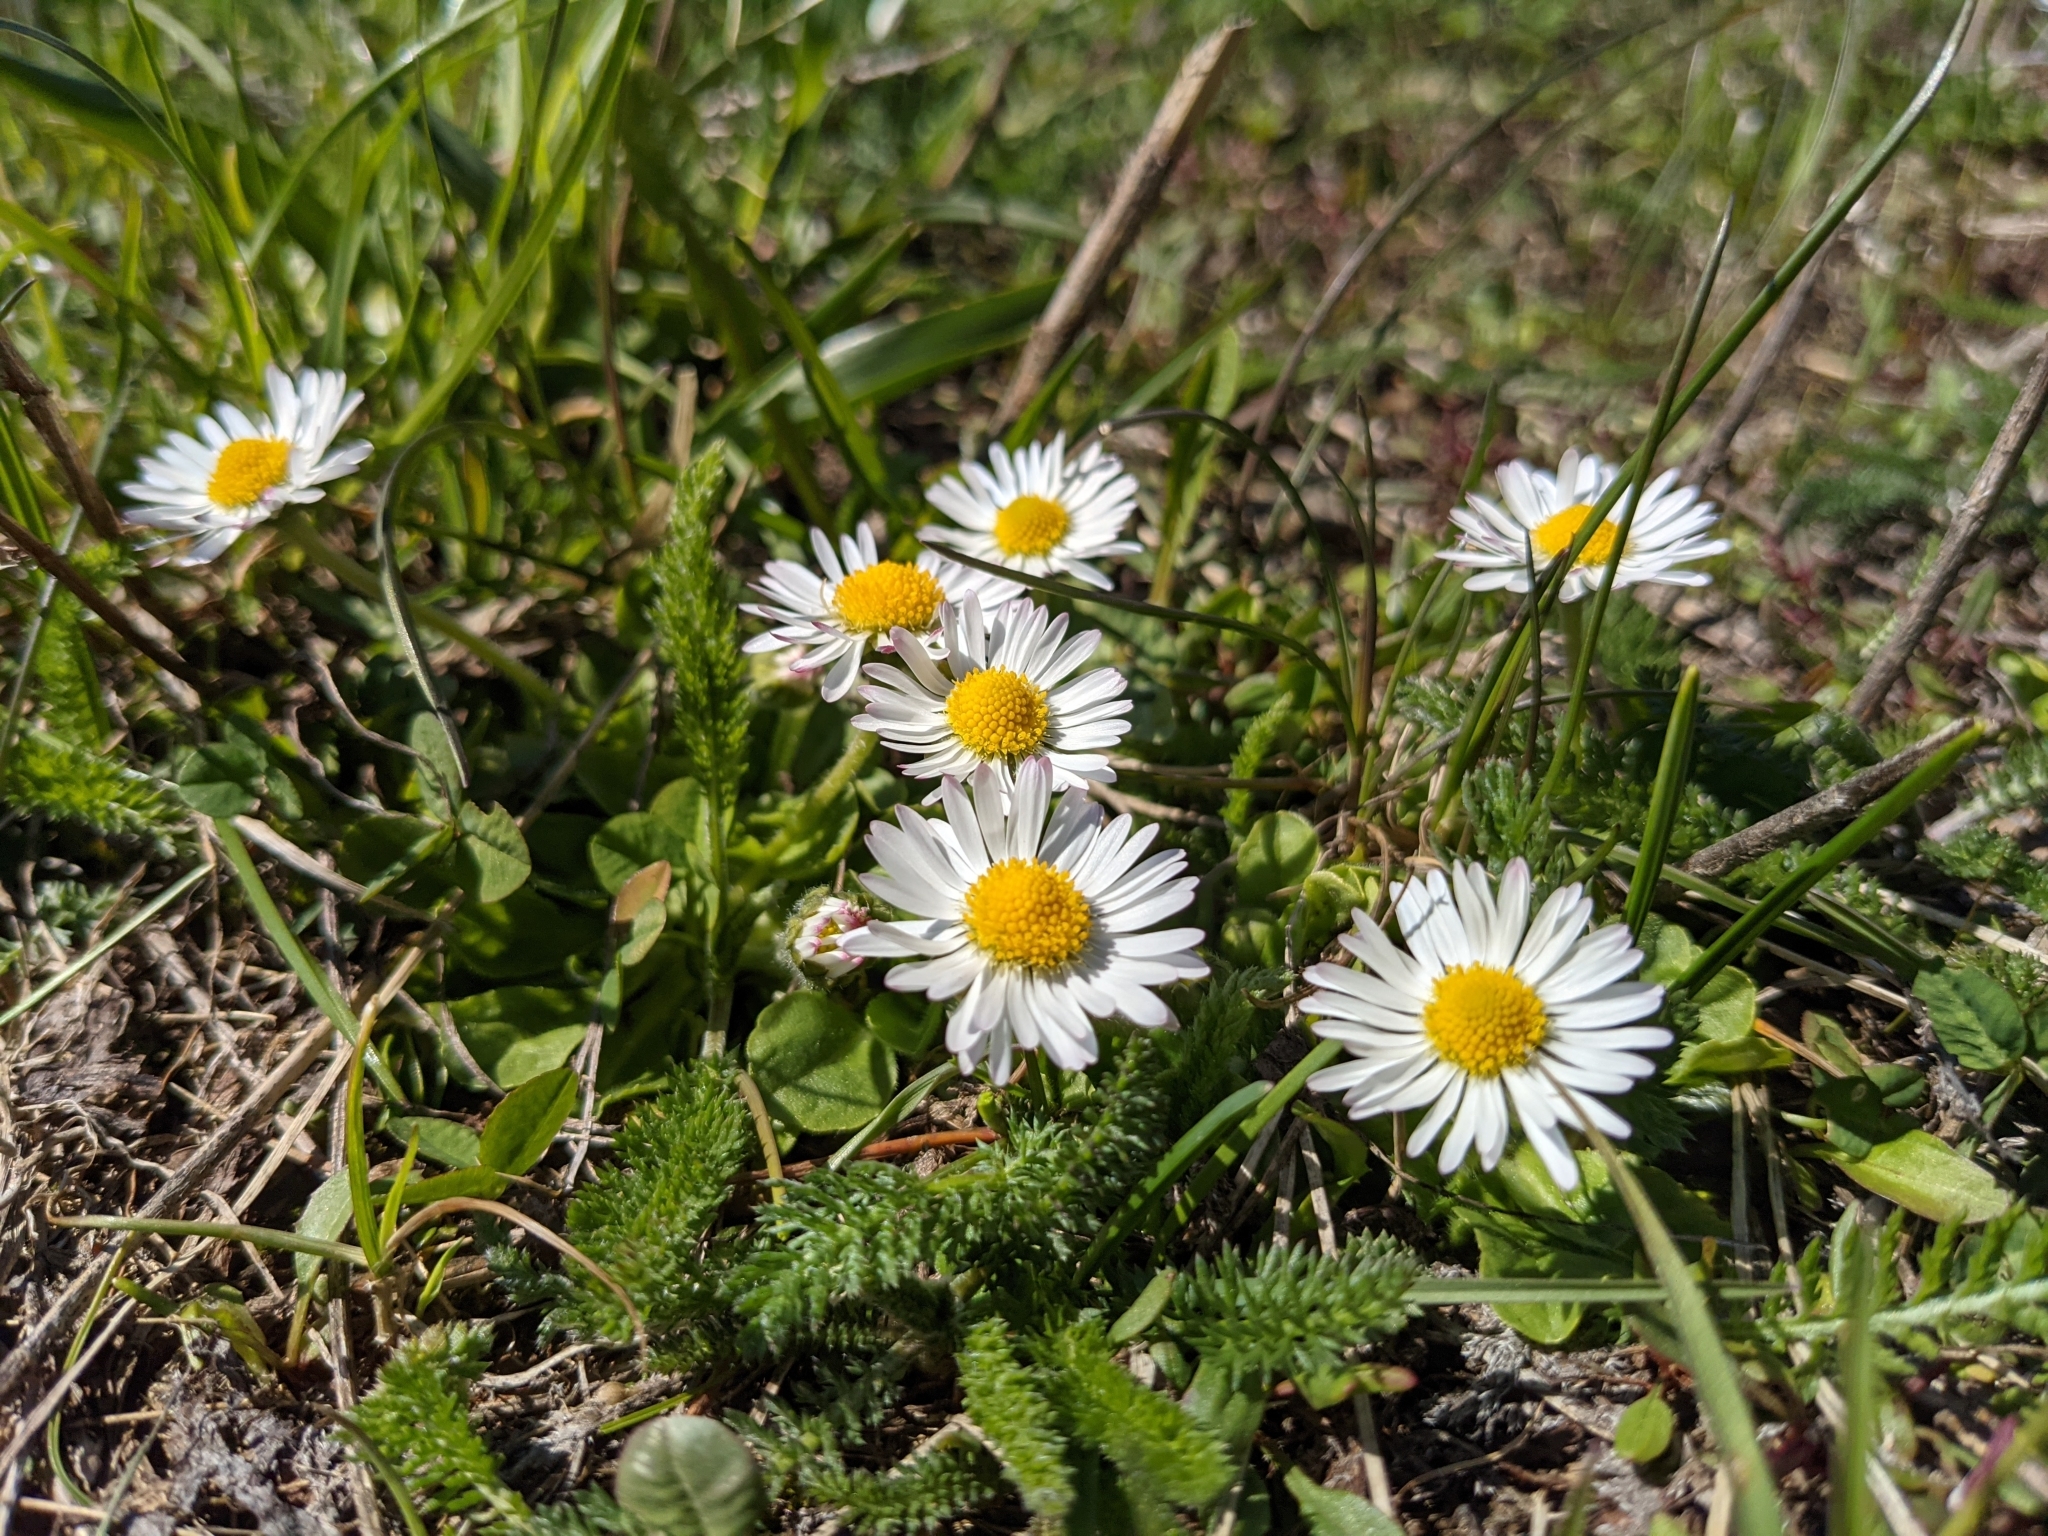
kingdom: Plantae
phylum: Tracheophyta
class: Magnoliopsida
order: Asterales
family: Asteraceae
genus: Bellis
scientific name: Bellis perennis
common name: Lawndaisy
